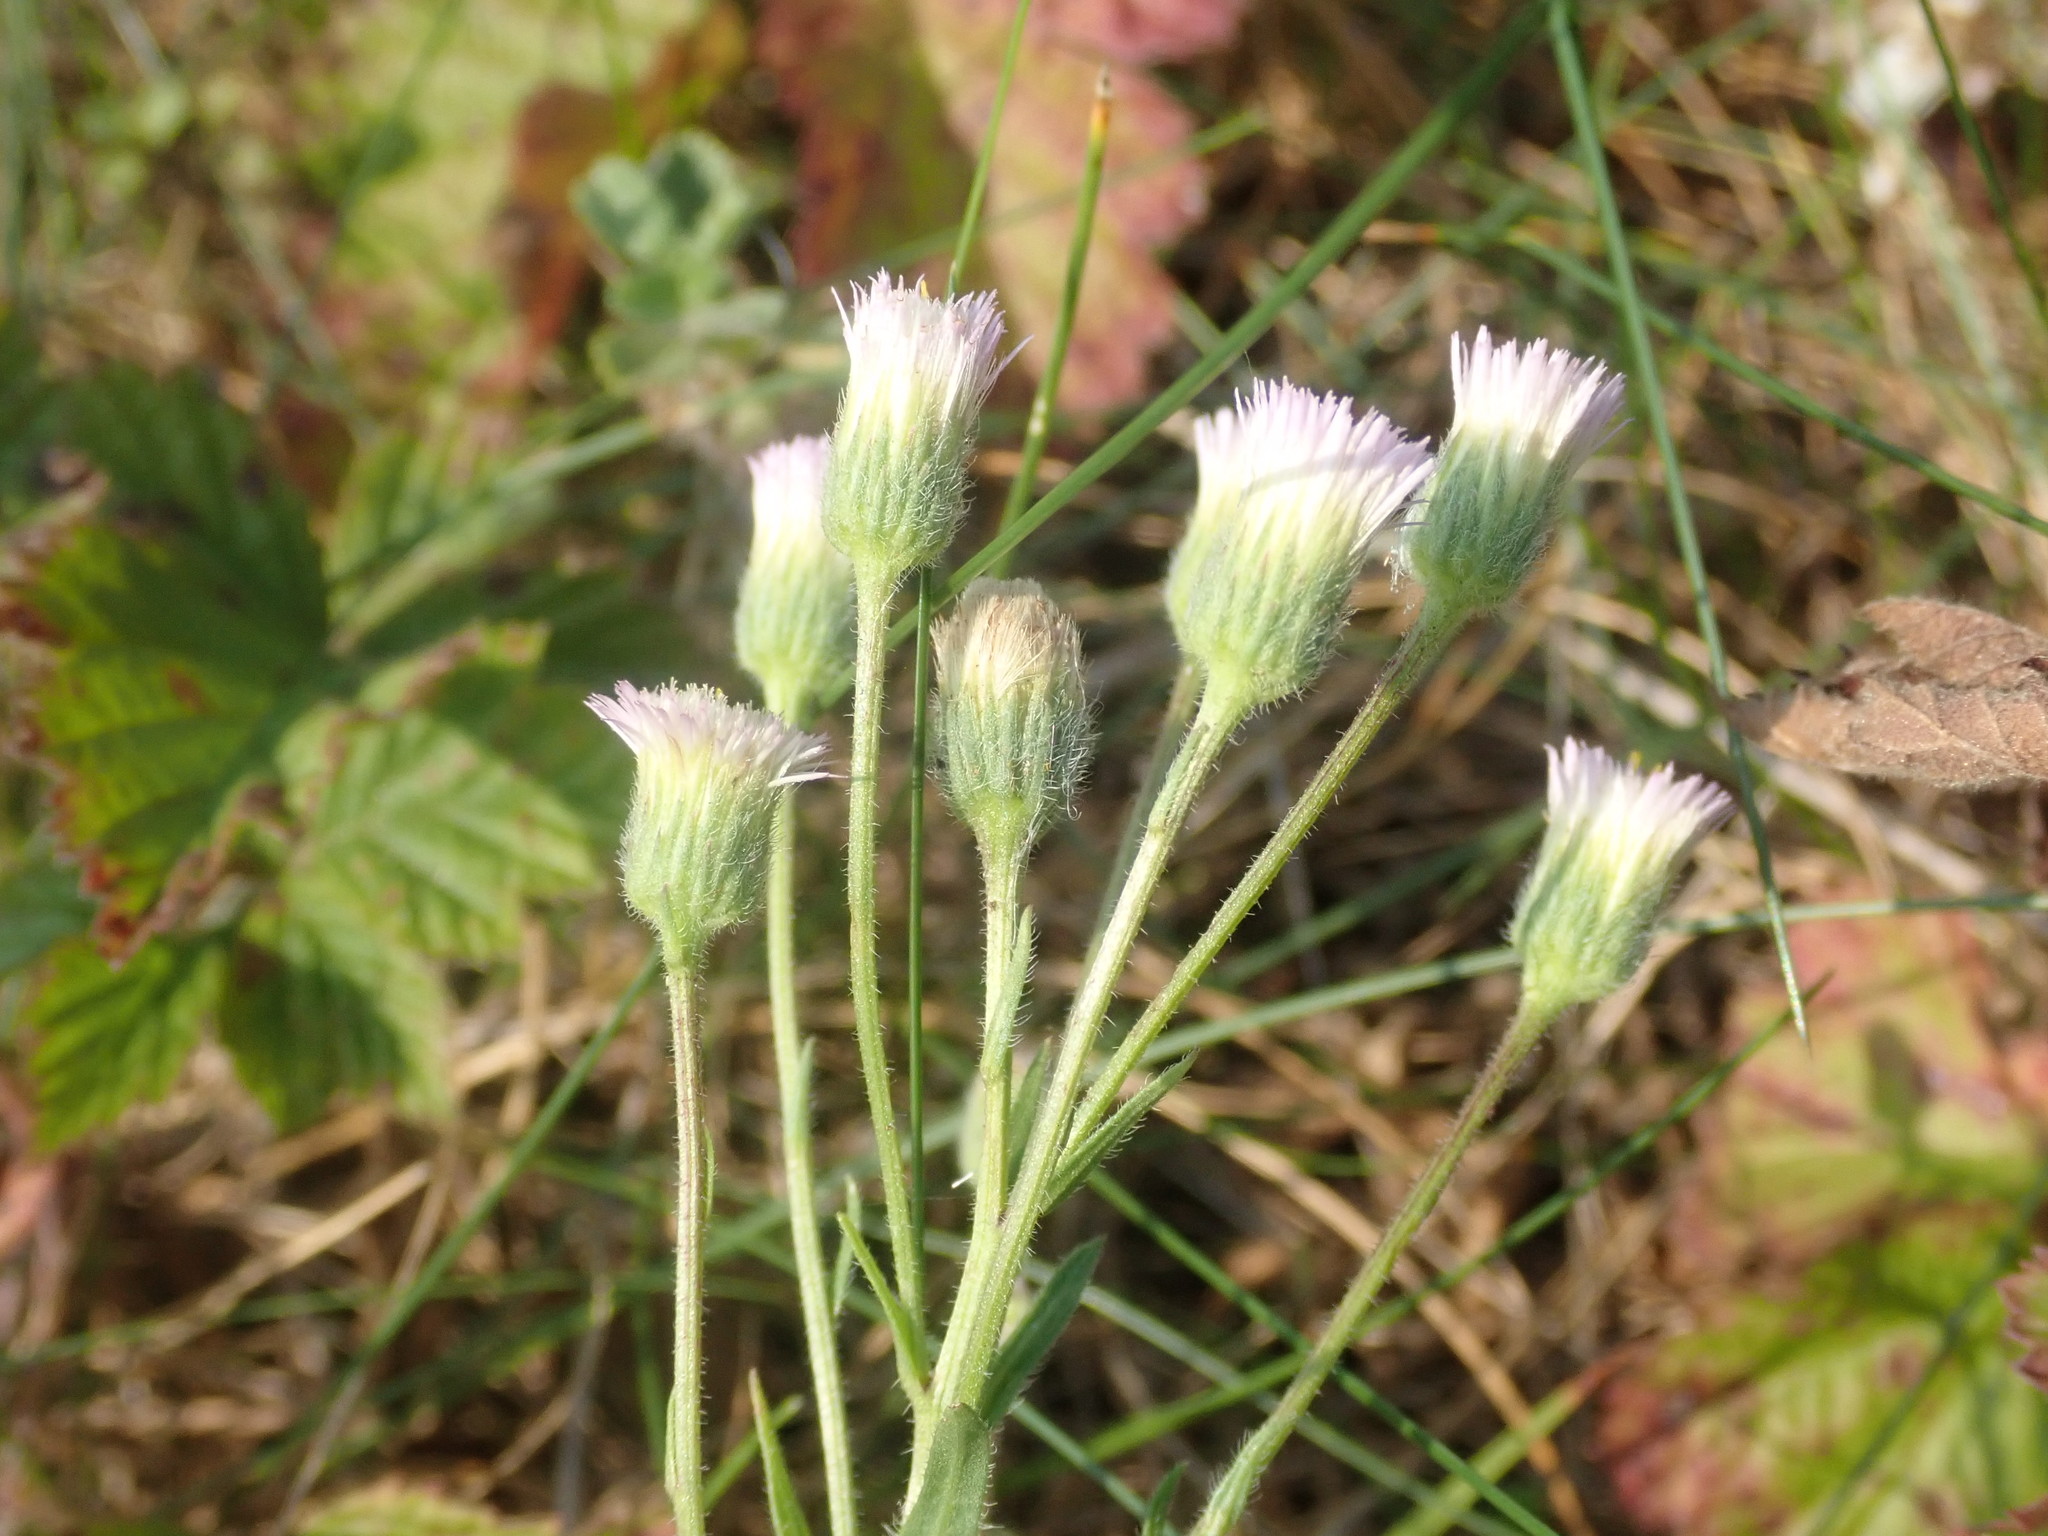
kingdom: Plantae
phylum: Tracheophyta
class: Magnoliopsida
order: Asterales
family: Asteraceae
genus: Erigeron
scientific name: Erigeron acris
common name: Blue fleabane
